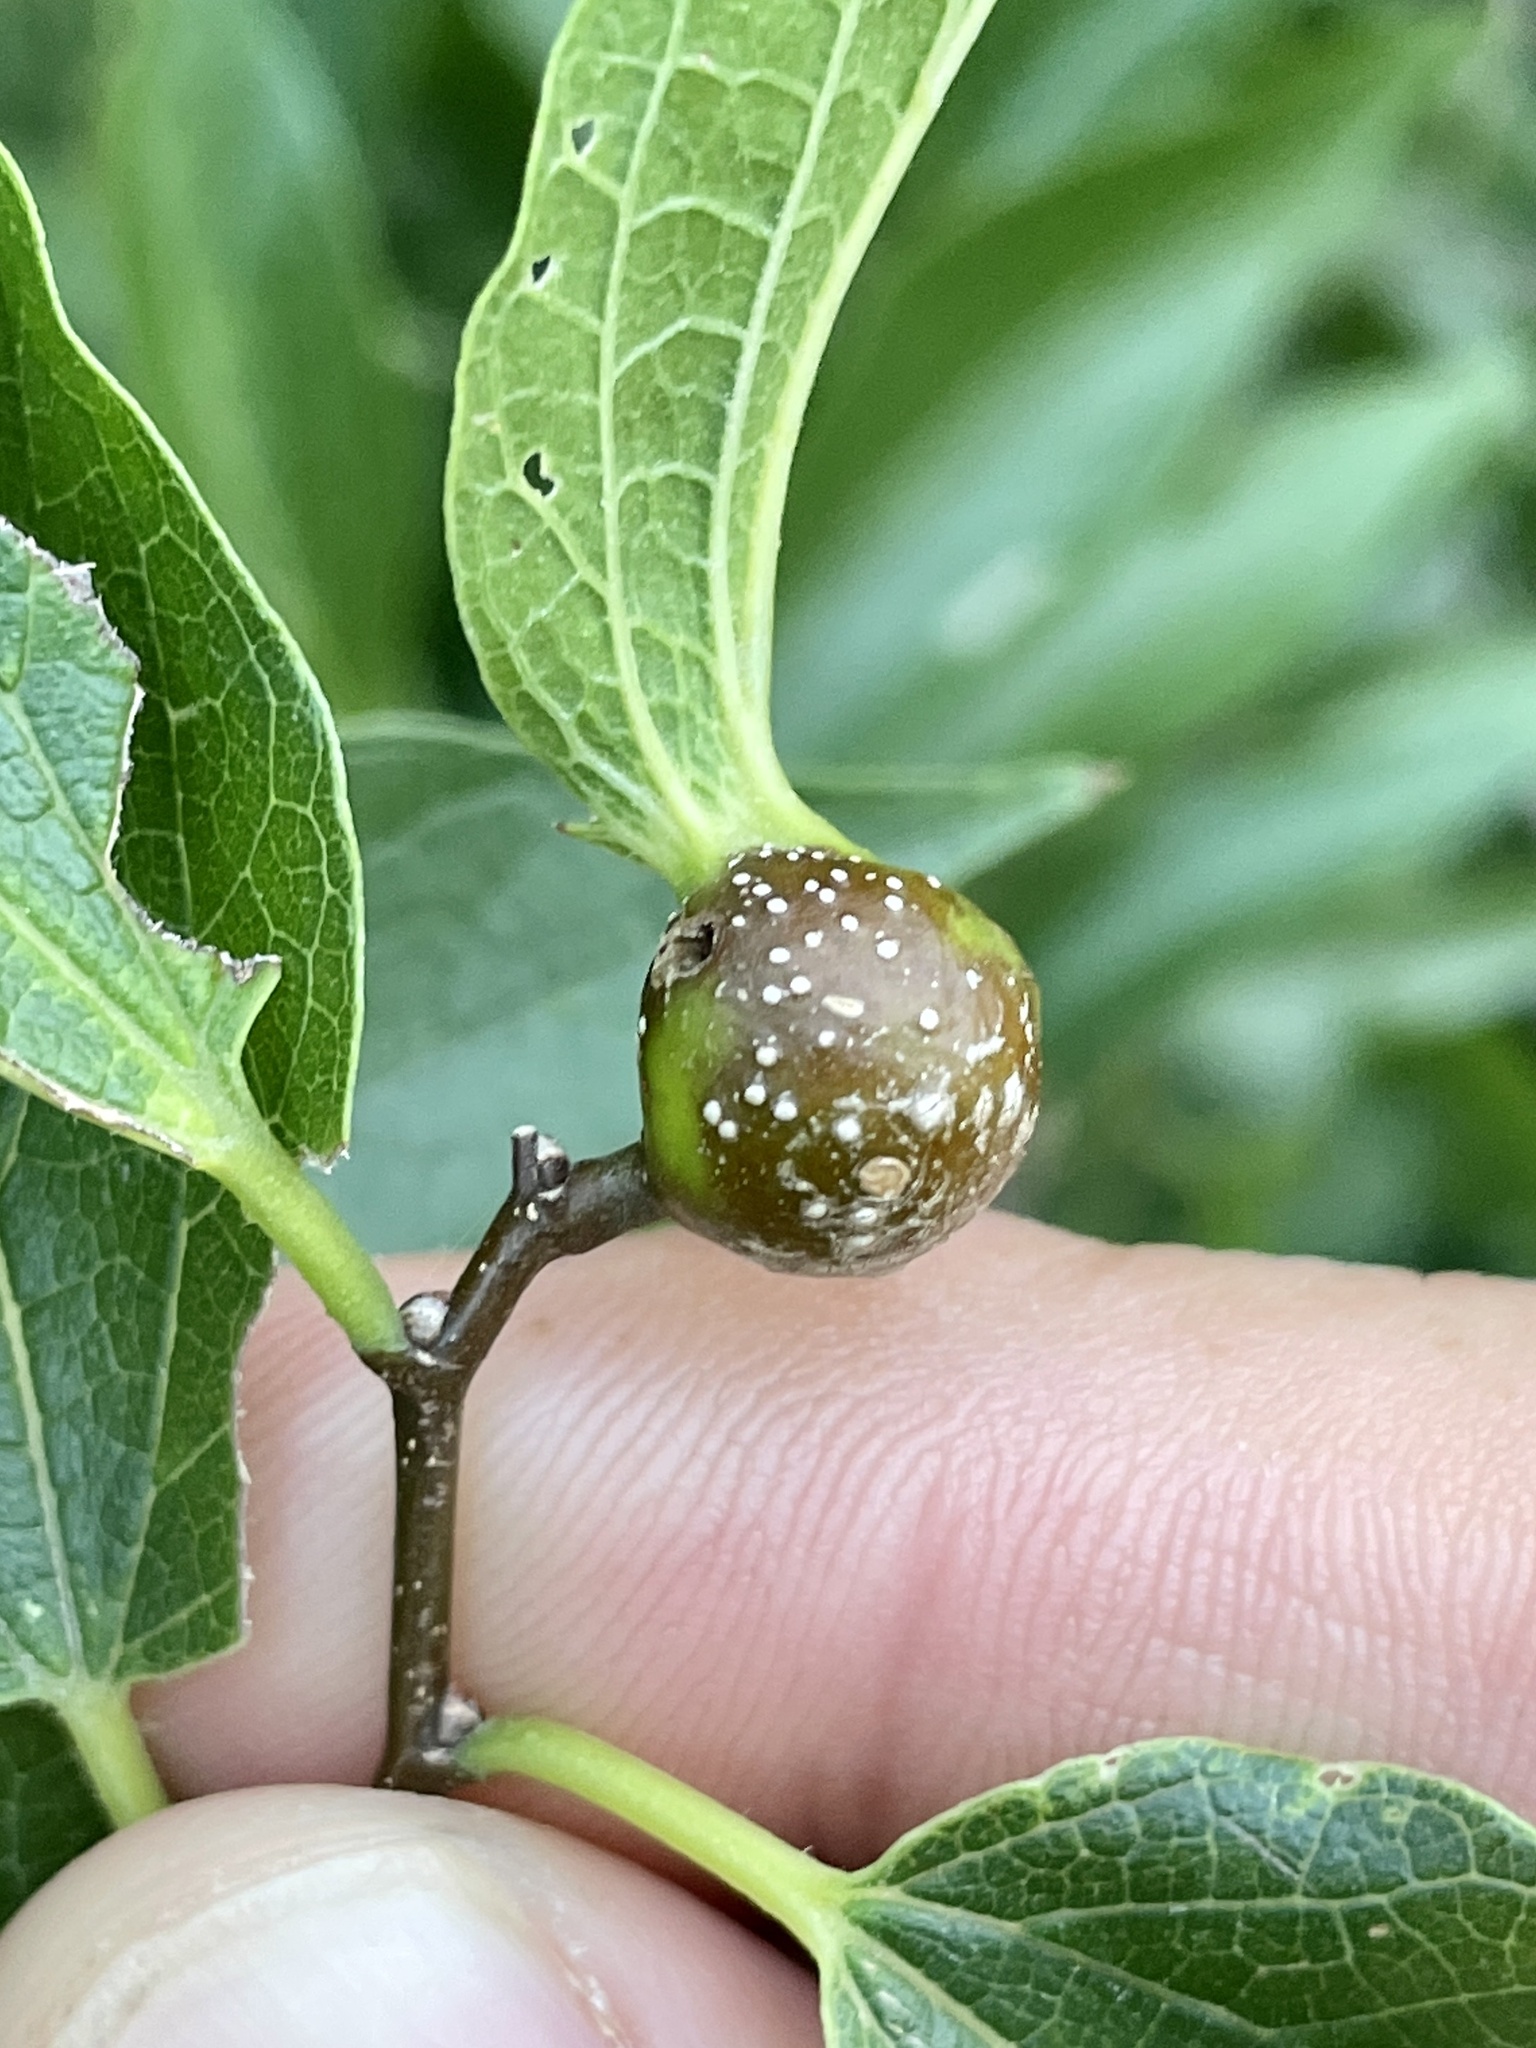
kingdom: Animalia
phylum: Arthropoda
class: Insecta
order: Hemiptera
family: Aphalaridae
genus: Pachypsylla
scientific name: Pachypsylla venusta
